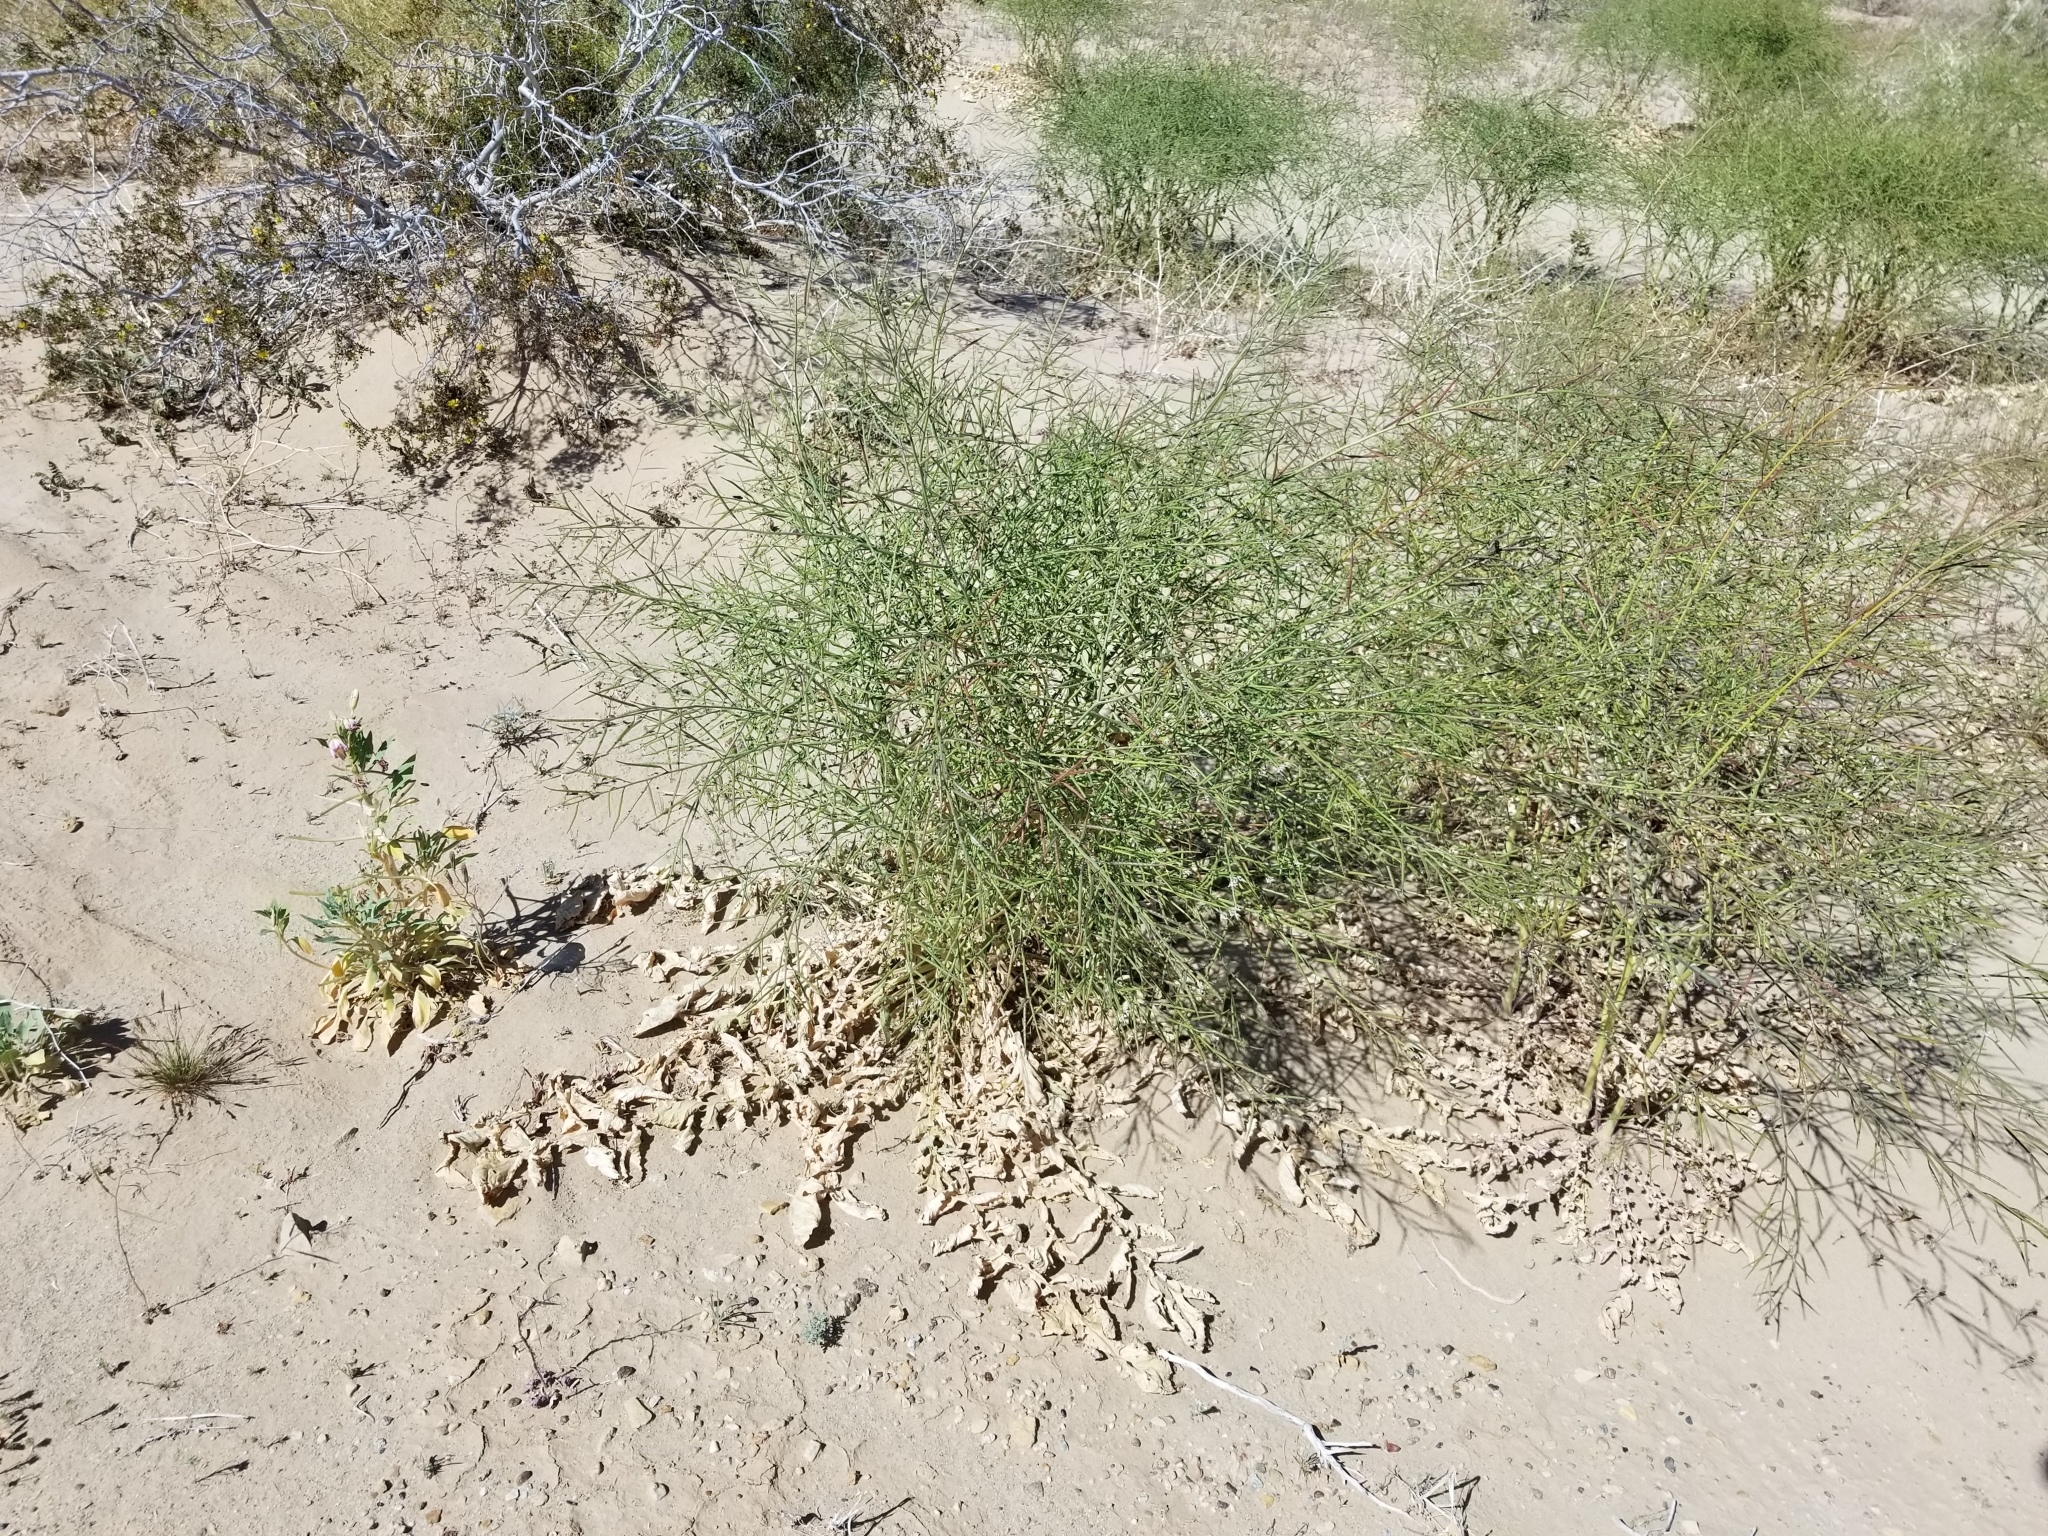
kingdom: Plantae
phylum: Tracheophyta
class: Magnoliopsida
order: Brassicales
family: Brassicaceae
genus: Brassica
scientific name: Brassica tournefortii
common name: Pale cabbage
